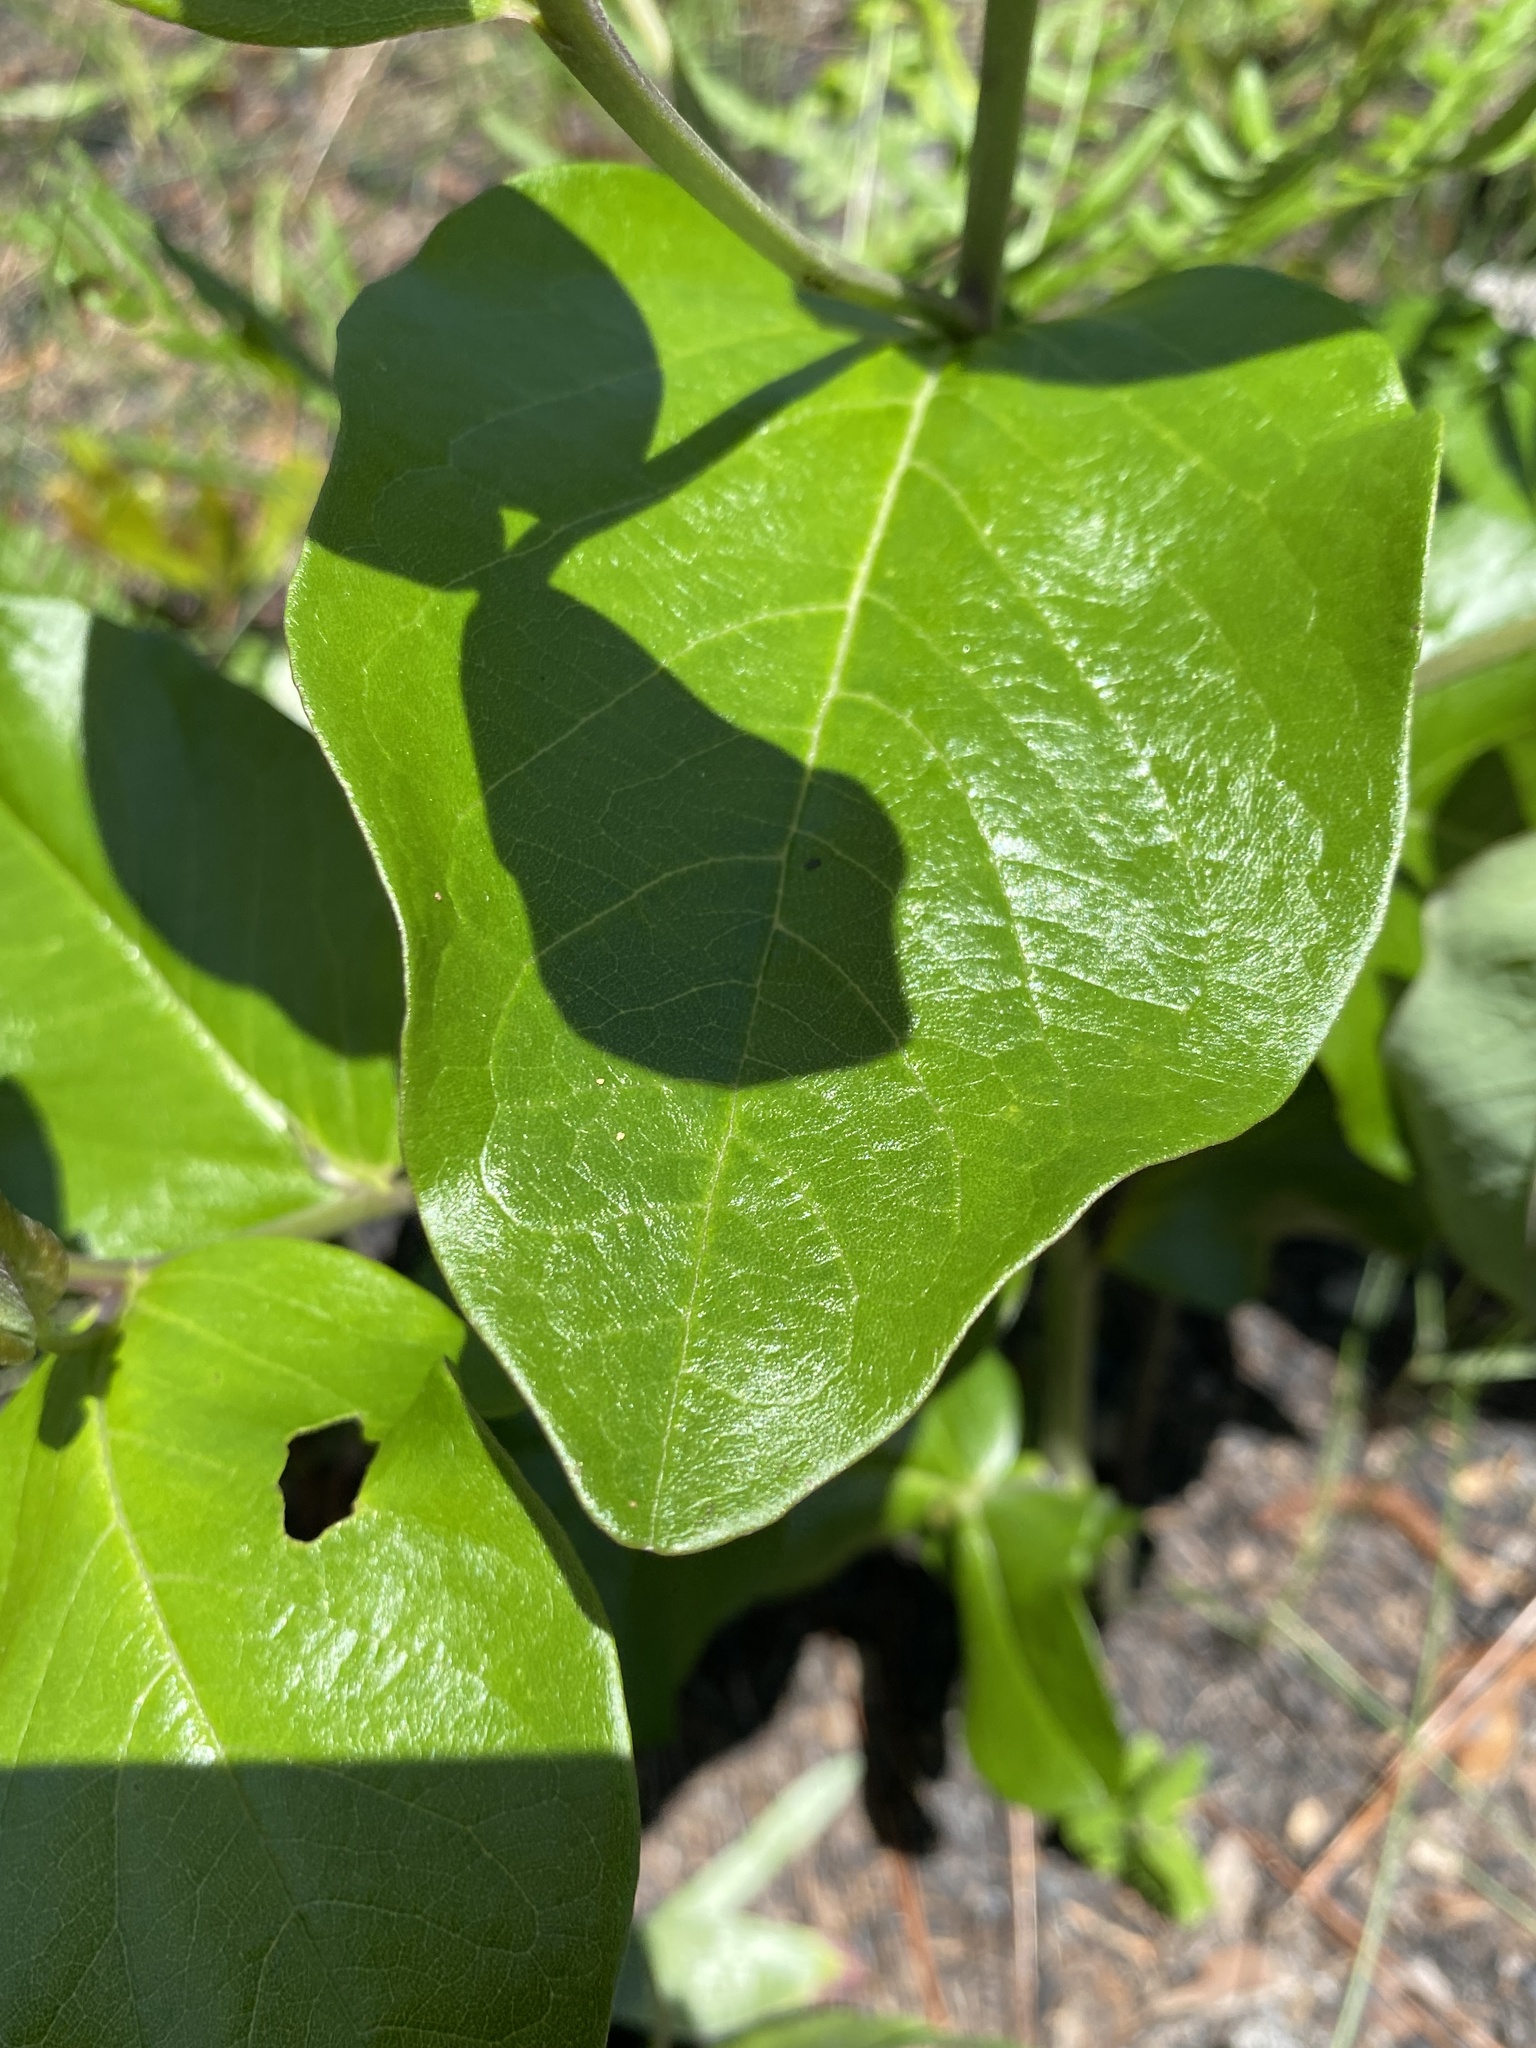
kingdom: Plantae
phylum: Tracheophyta
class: Magnoliopsida
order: Fabales
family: Fabaceae
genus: Baptisia
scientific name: Baptisia simplicifolia
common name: Scareweed
